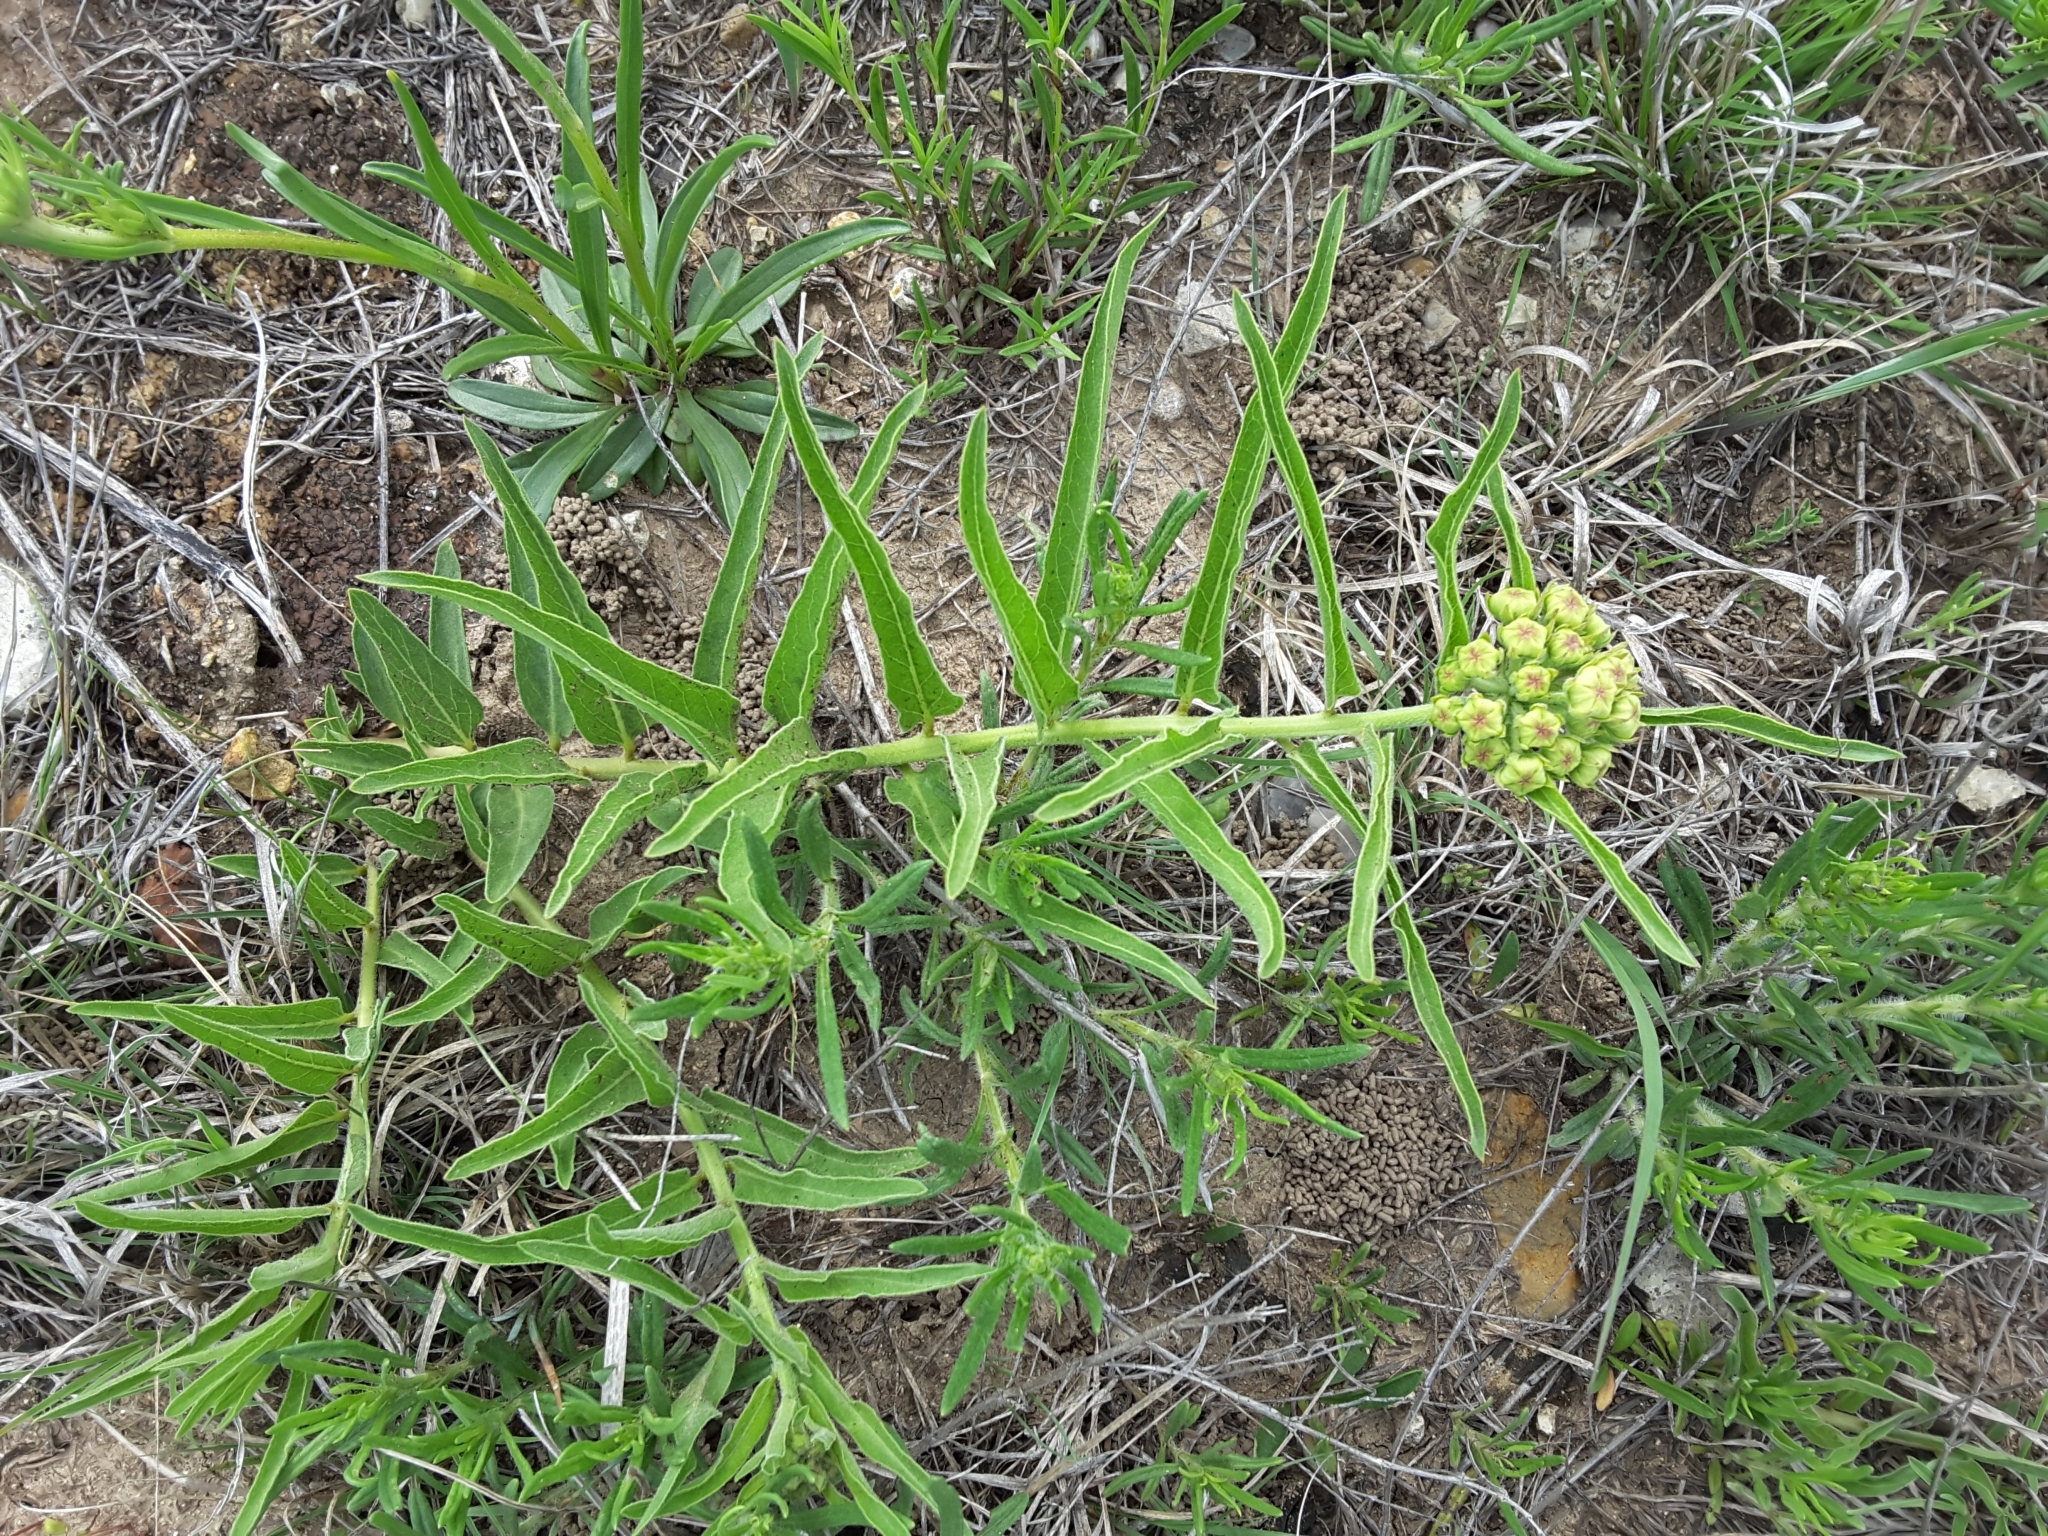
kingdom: Plantae
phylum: Tracheophyta
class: Magnoliopsida
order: Gentianales
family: Apocynaceae
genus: Asclepias
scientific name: Asclepias asperula
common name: Antelope horns
